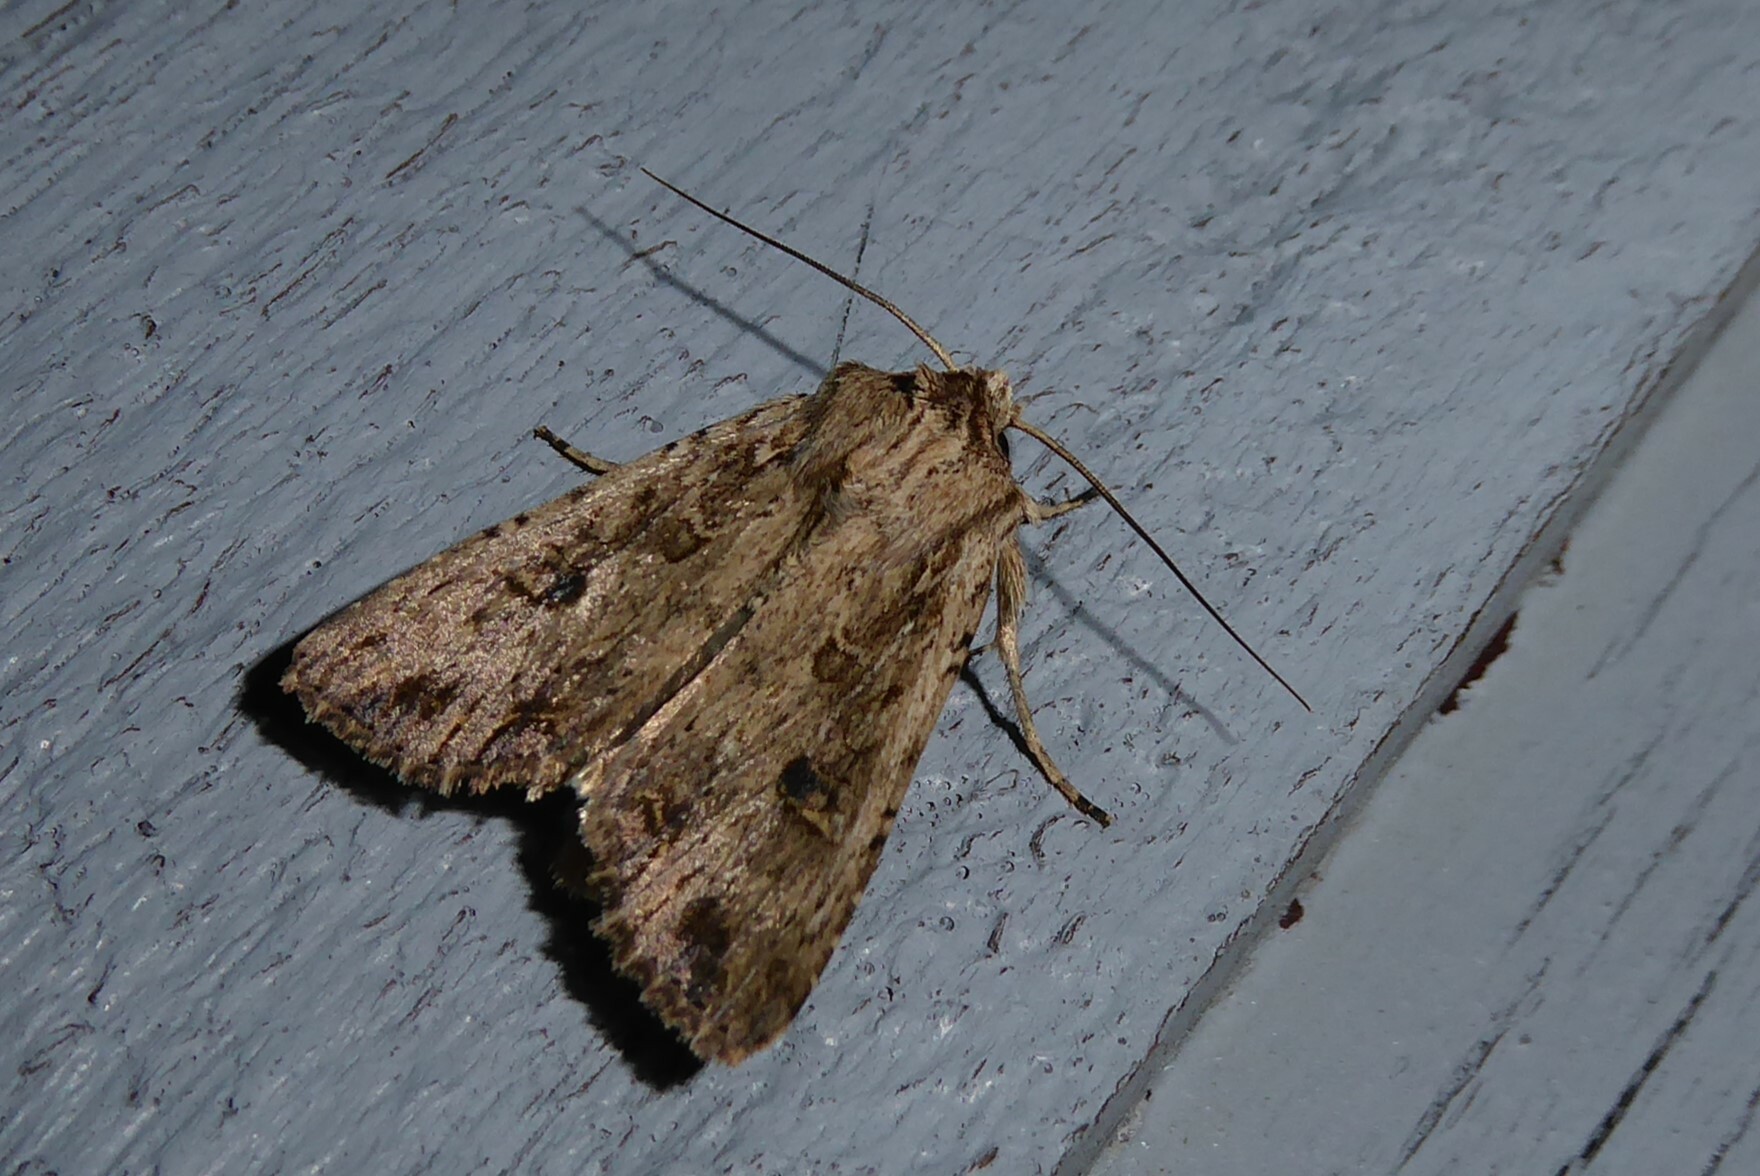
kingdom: Animalia
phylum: Arthropoda
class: Insecta
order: Lepidoptera
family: Noctuidae
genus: Ichneutica
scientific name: Ichneutica lignana
